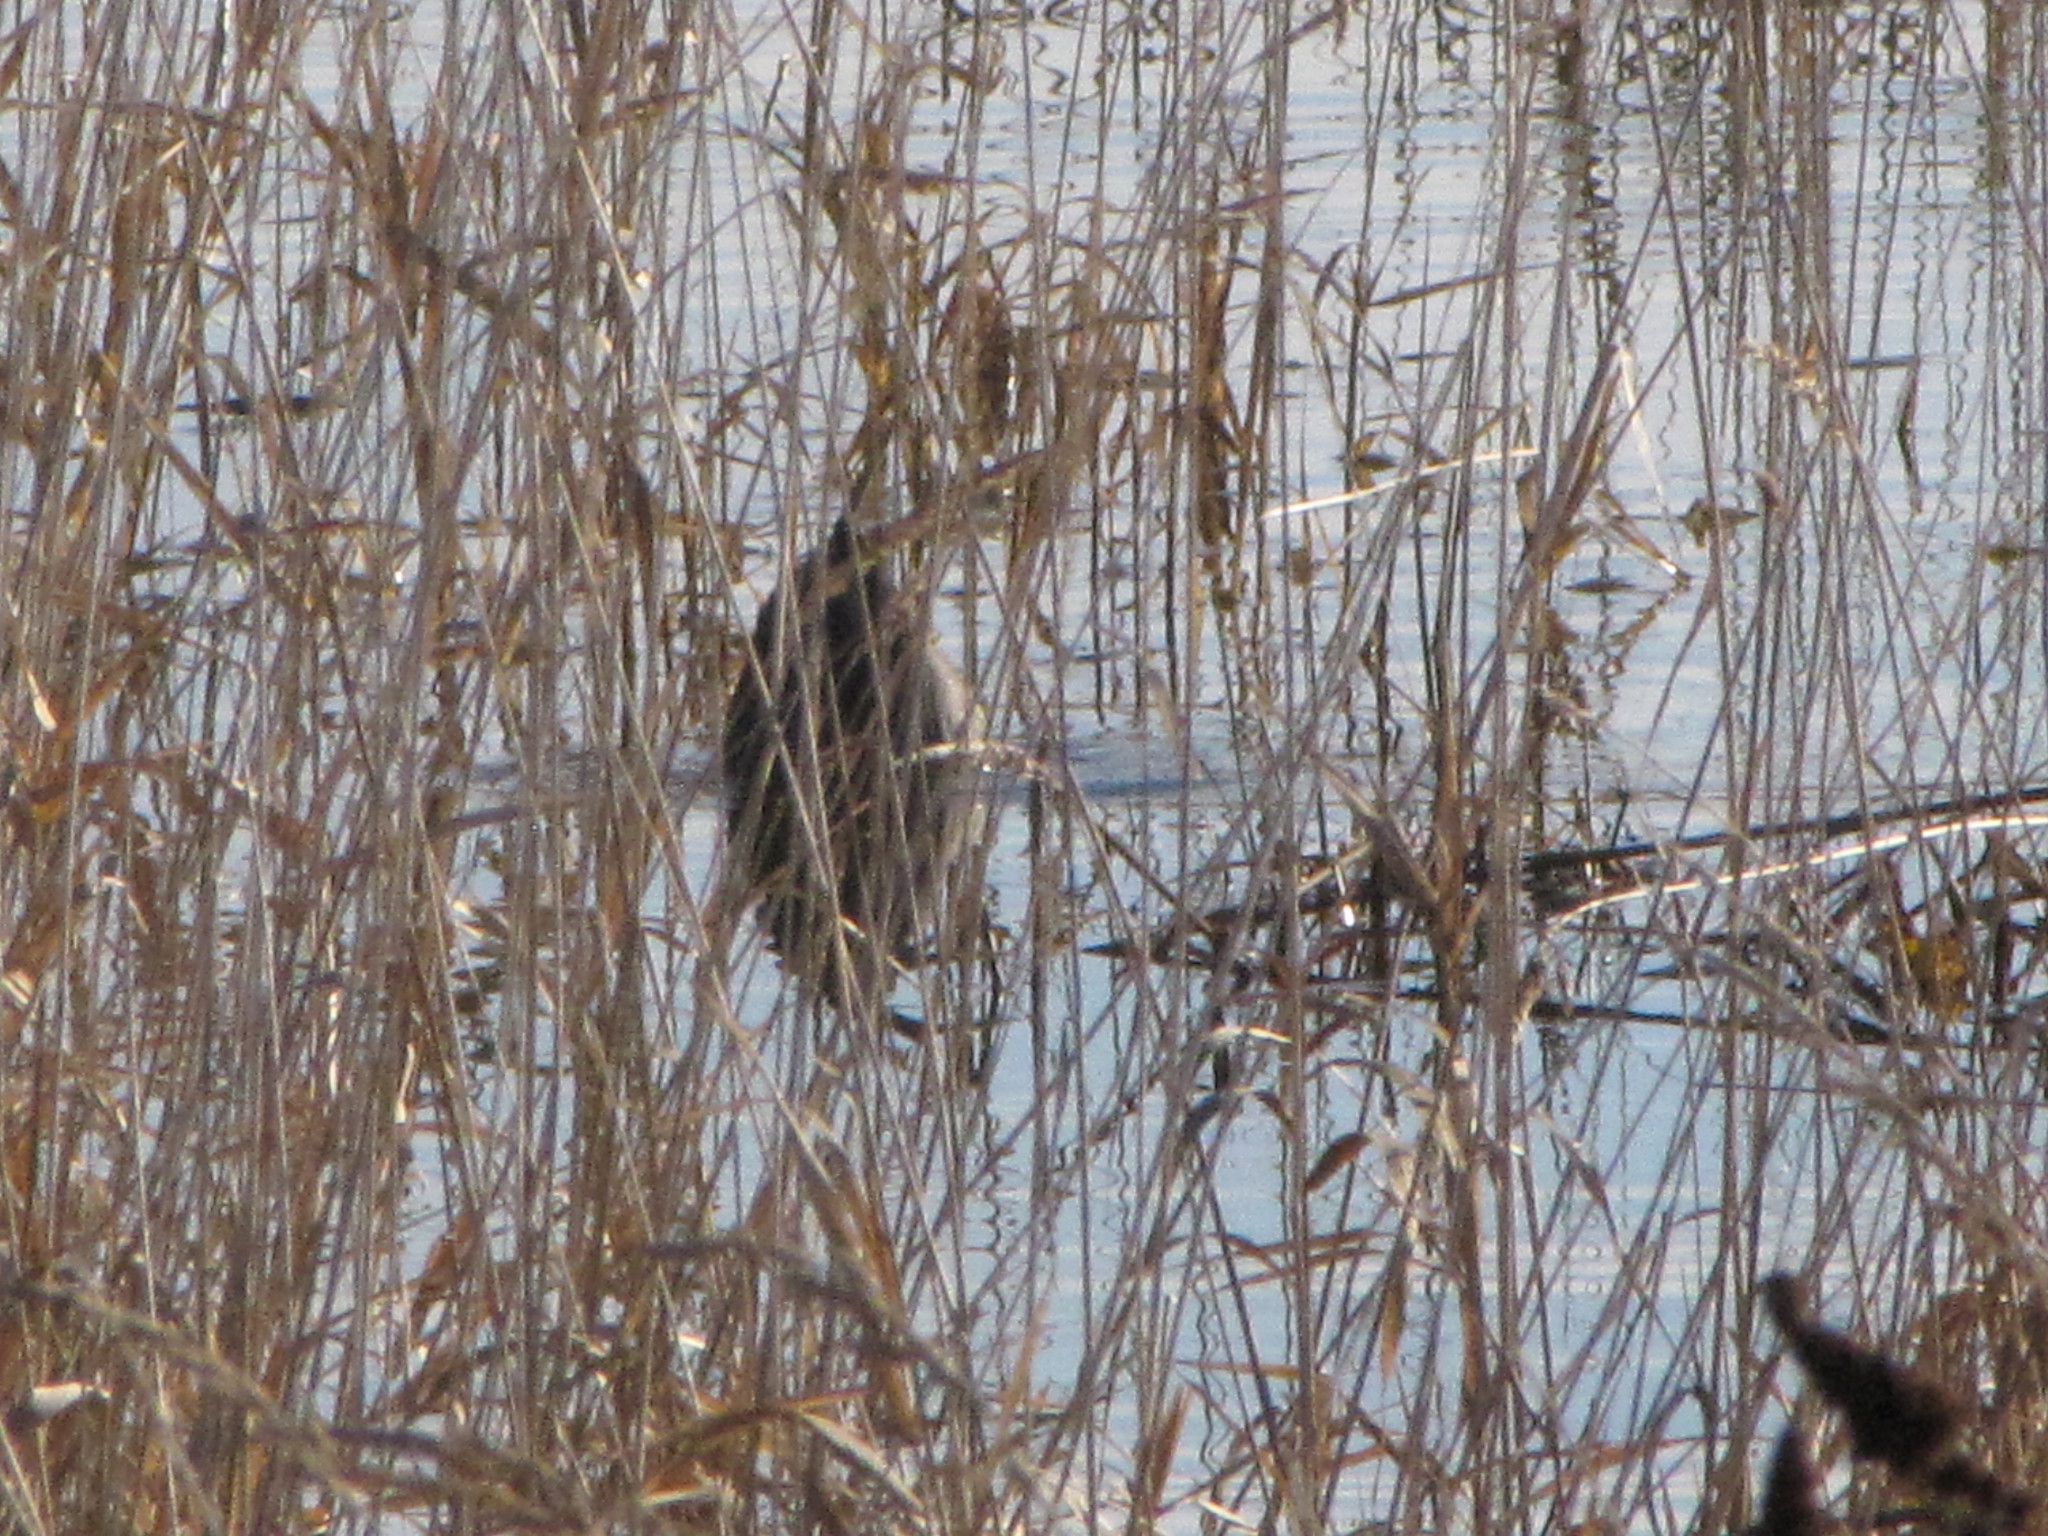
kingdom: Animalia
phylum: Chordata
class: Aves
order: Pelecaniformes
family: Ardeidae
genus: Ardea
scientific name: Ardea herodias
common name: Great blue heron
